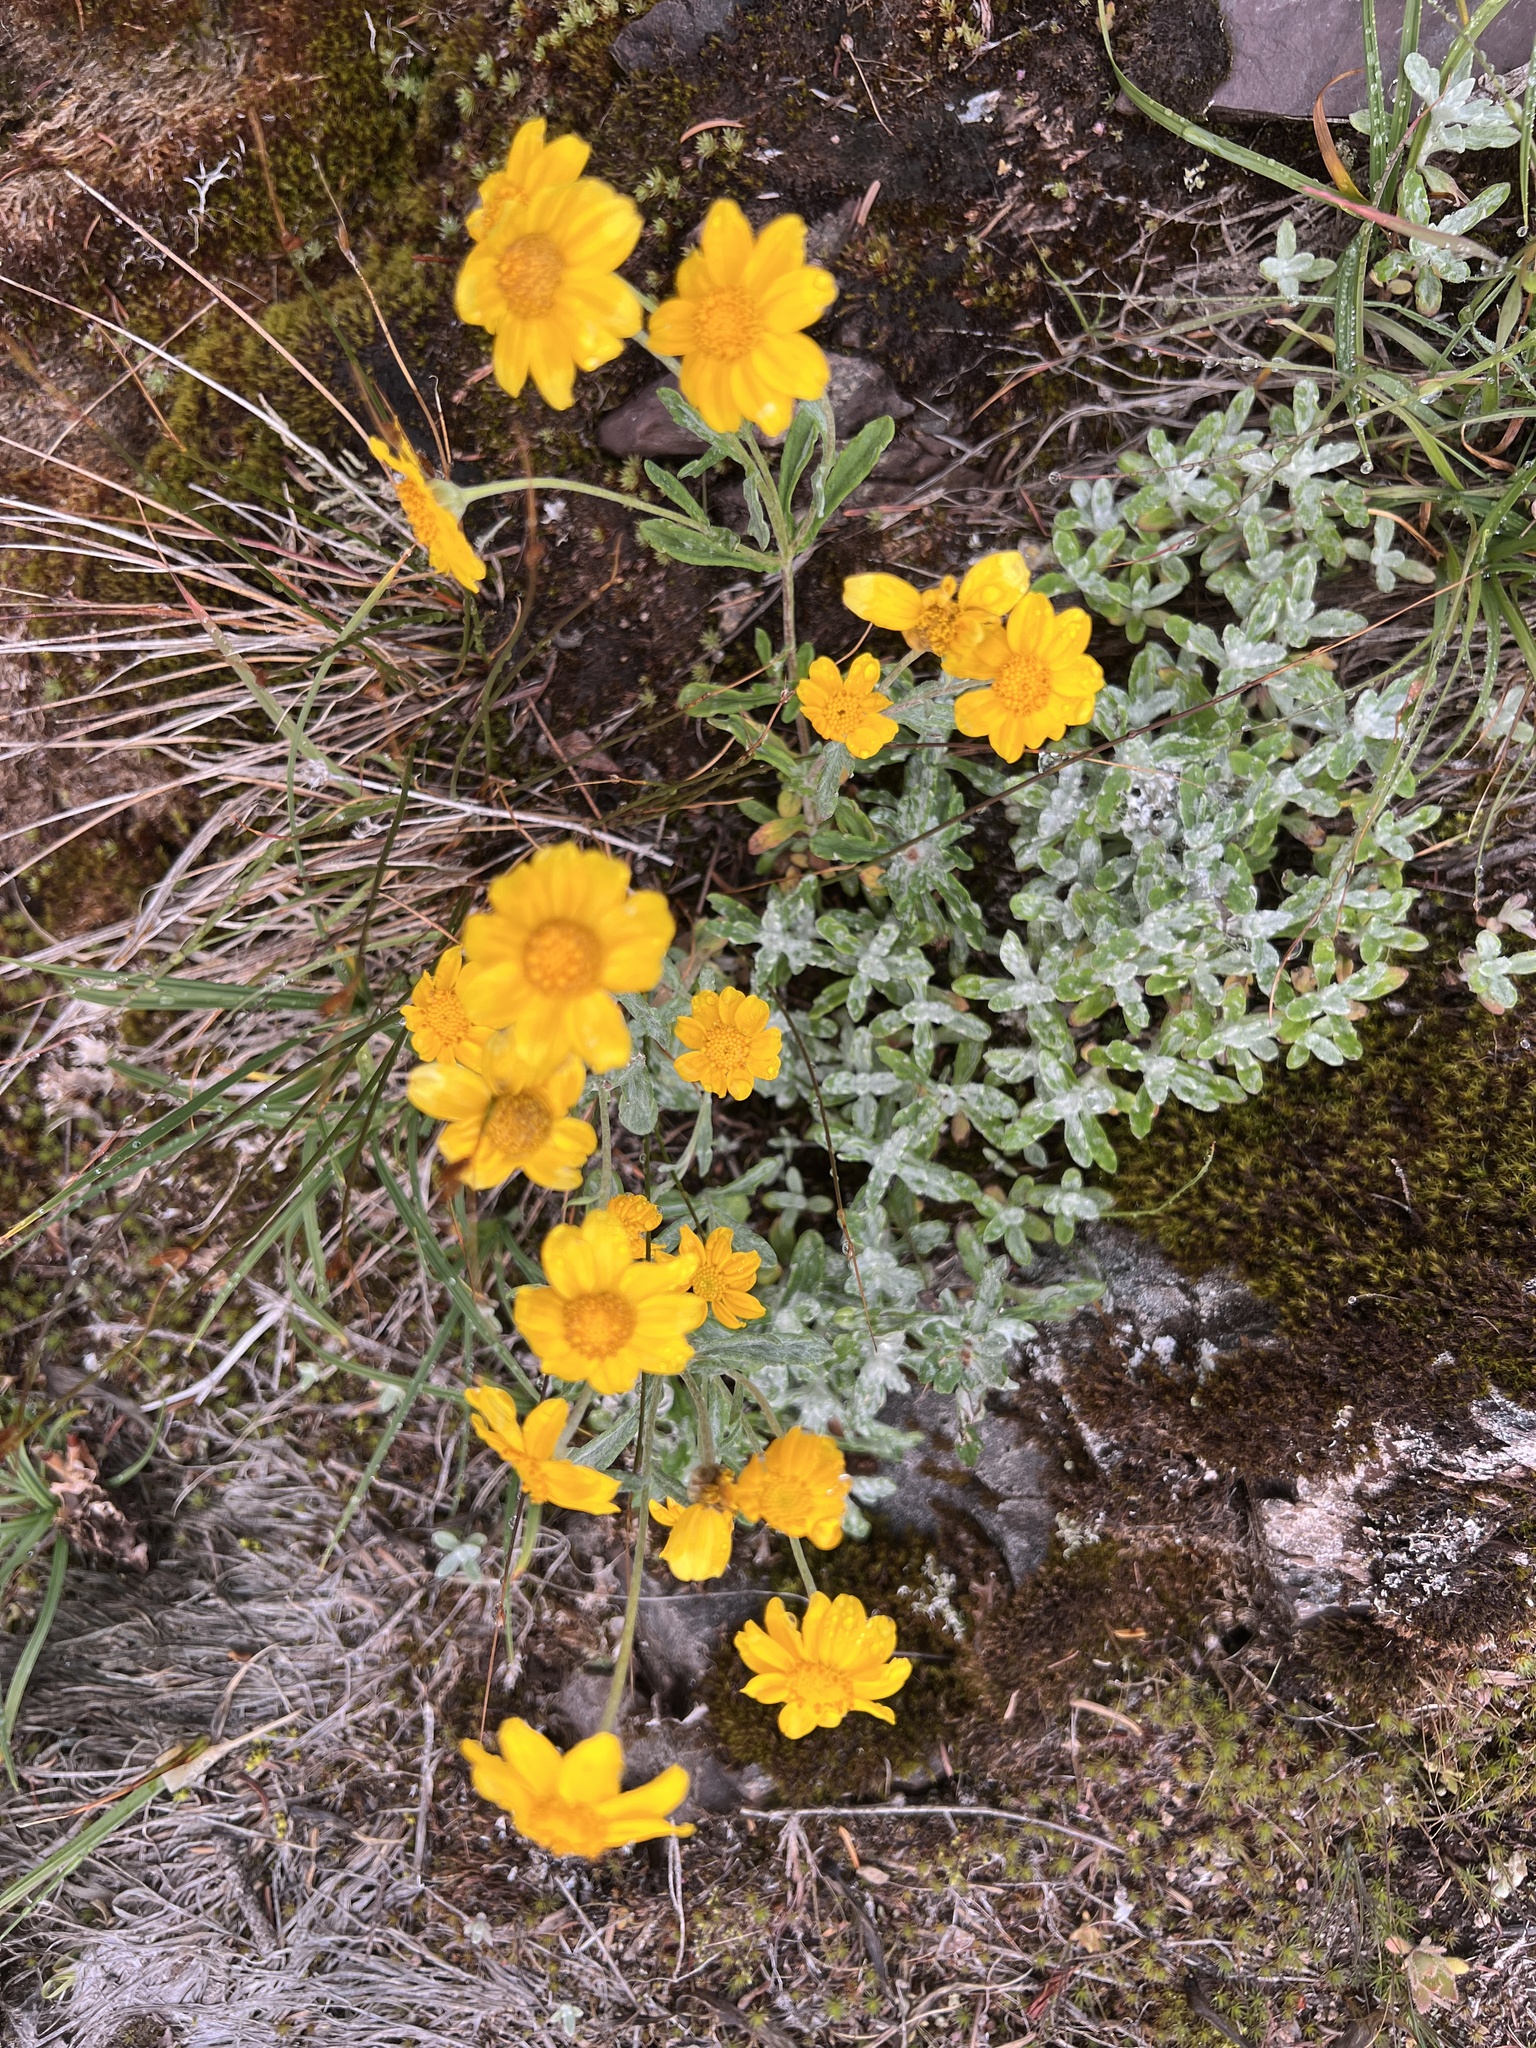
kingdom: Plantae
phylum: Tracheophyta
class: Magnoliopsida
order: Asterales
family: Asteraceae
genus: Eriophyllum
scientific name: Eriophyllum lanatum
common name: Common woolly-sunflower
